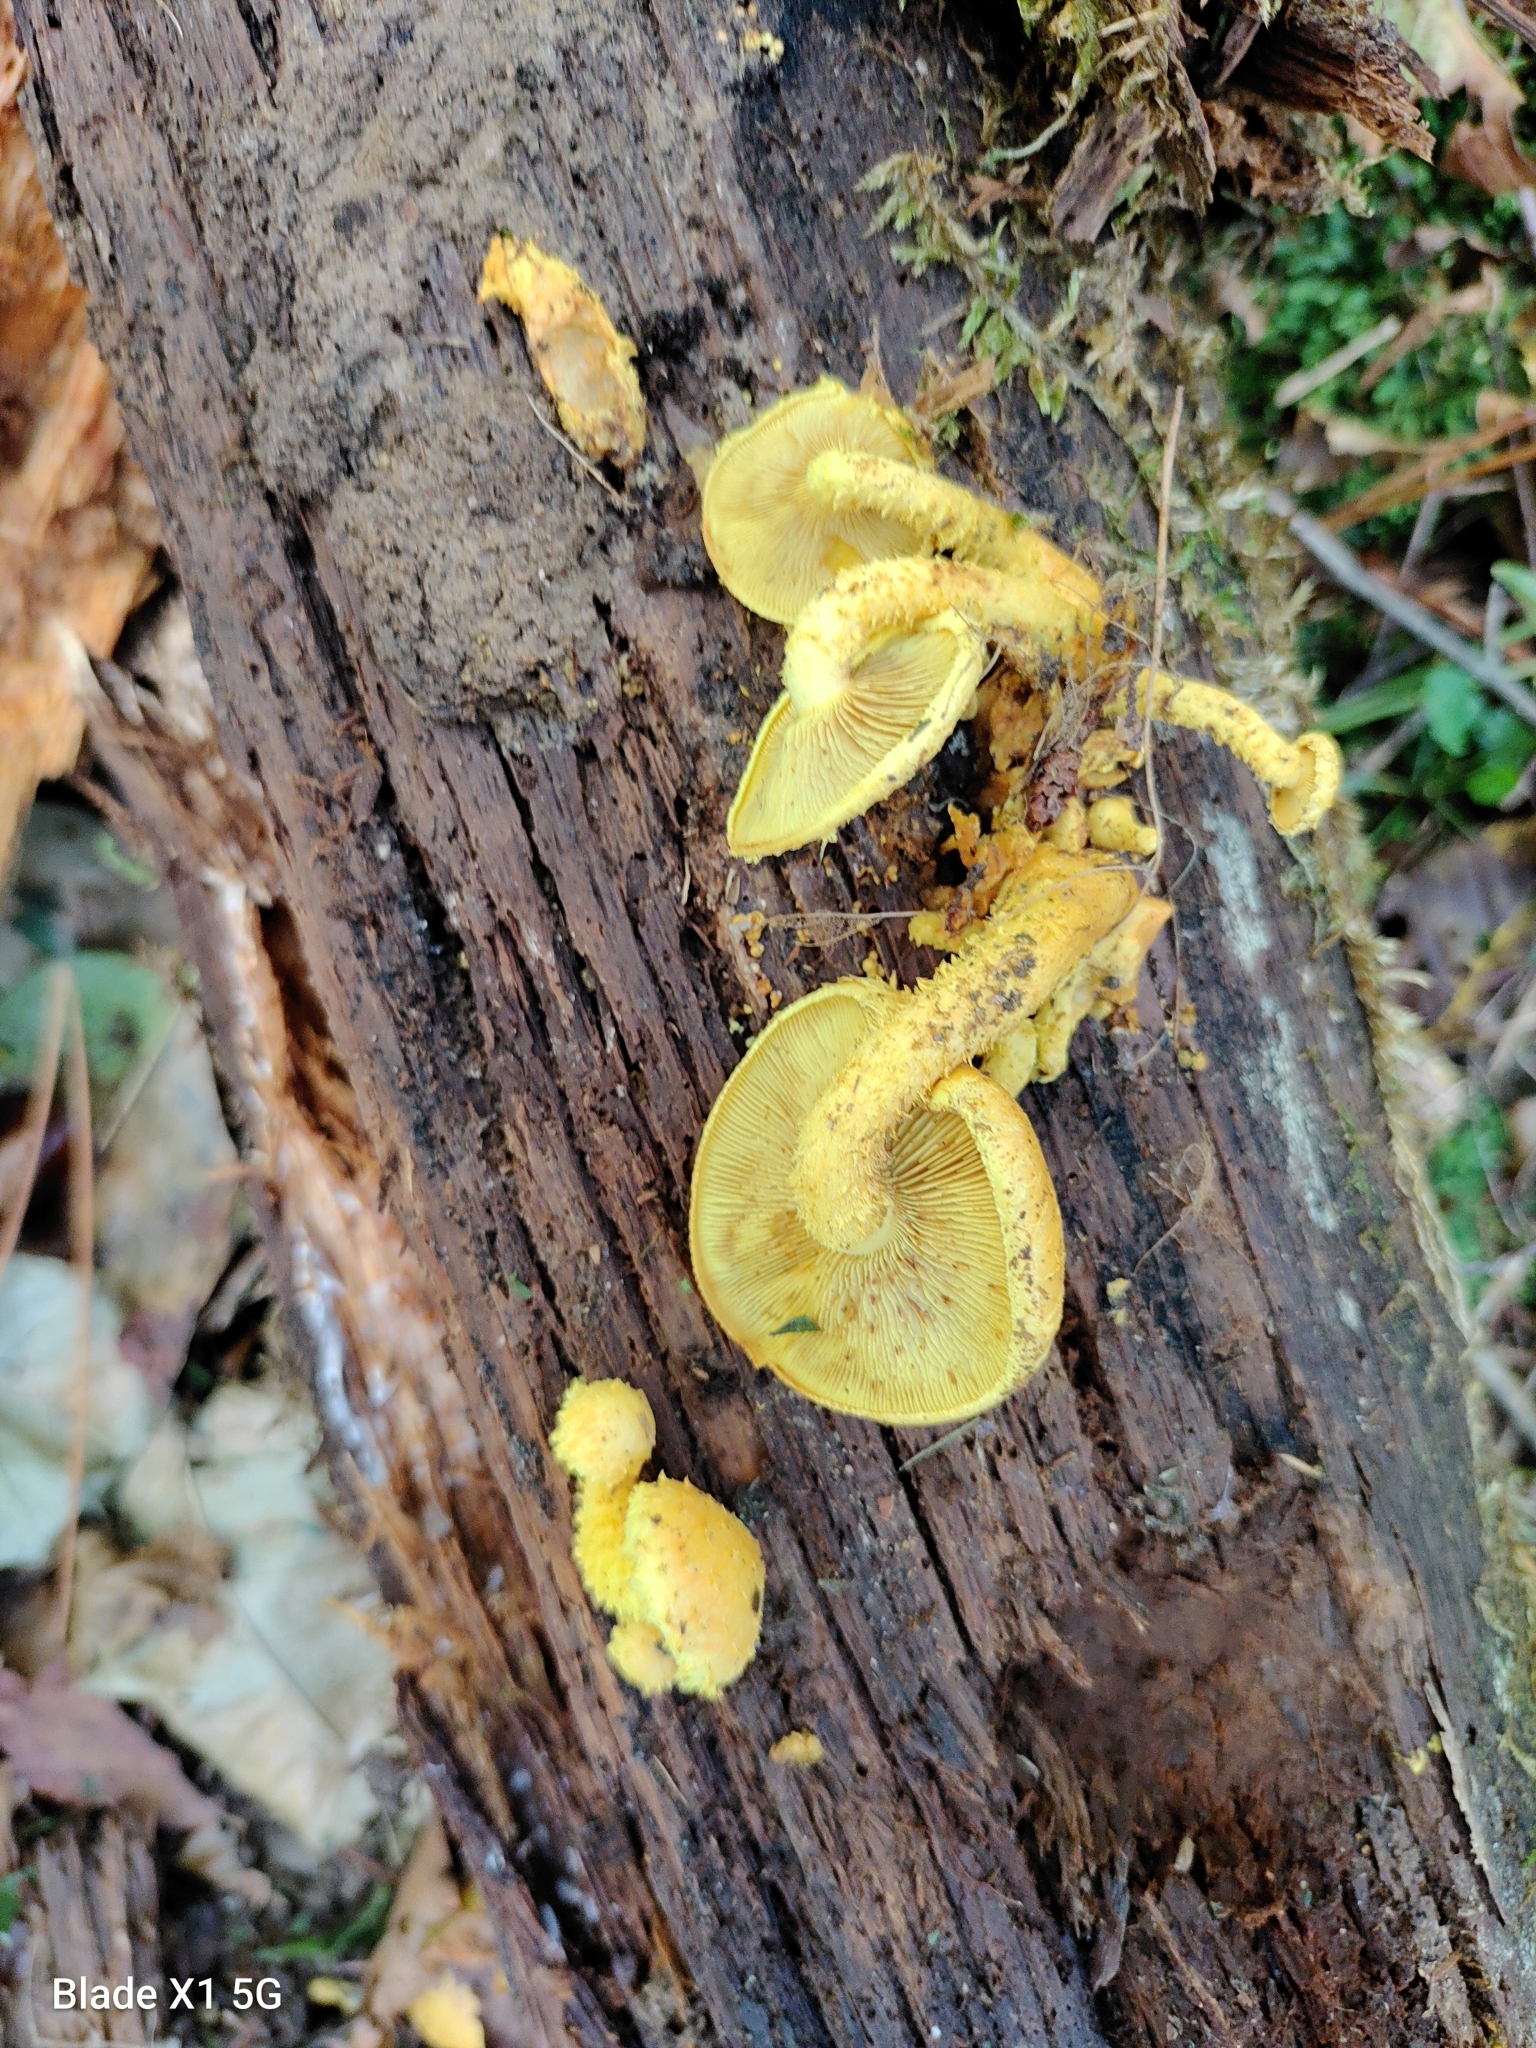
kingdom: Fungi
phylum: Basidiomycota
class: Agaricomycetes
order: Agaricales
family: Strophariaceae
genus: Pholiota
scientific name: Pholiota flammans
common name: Flaming scalycap
